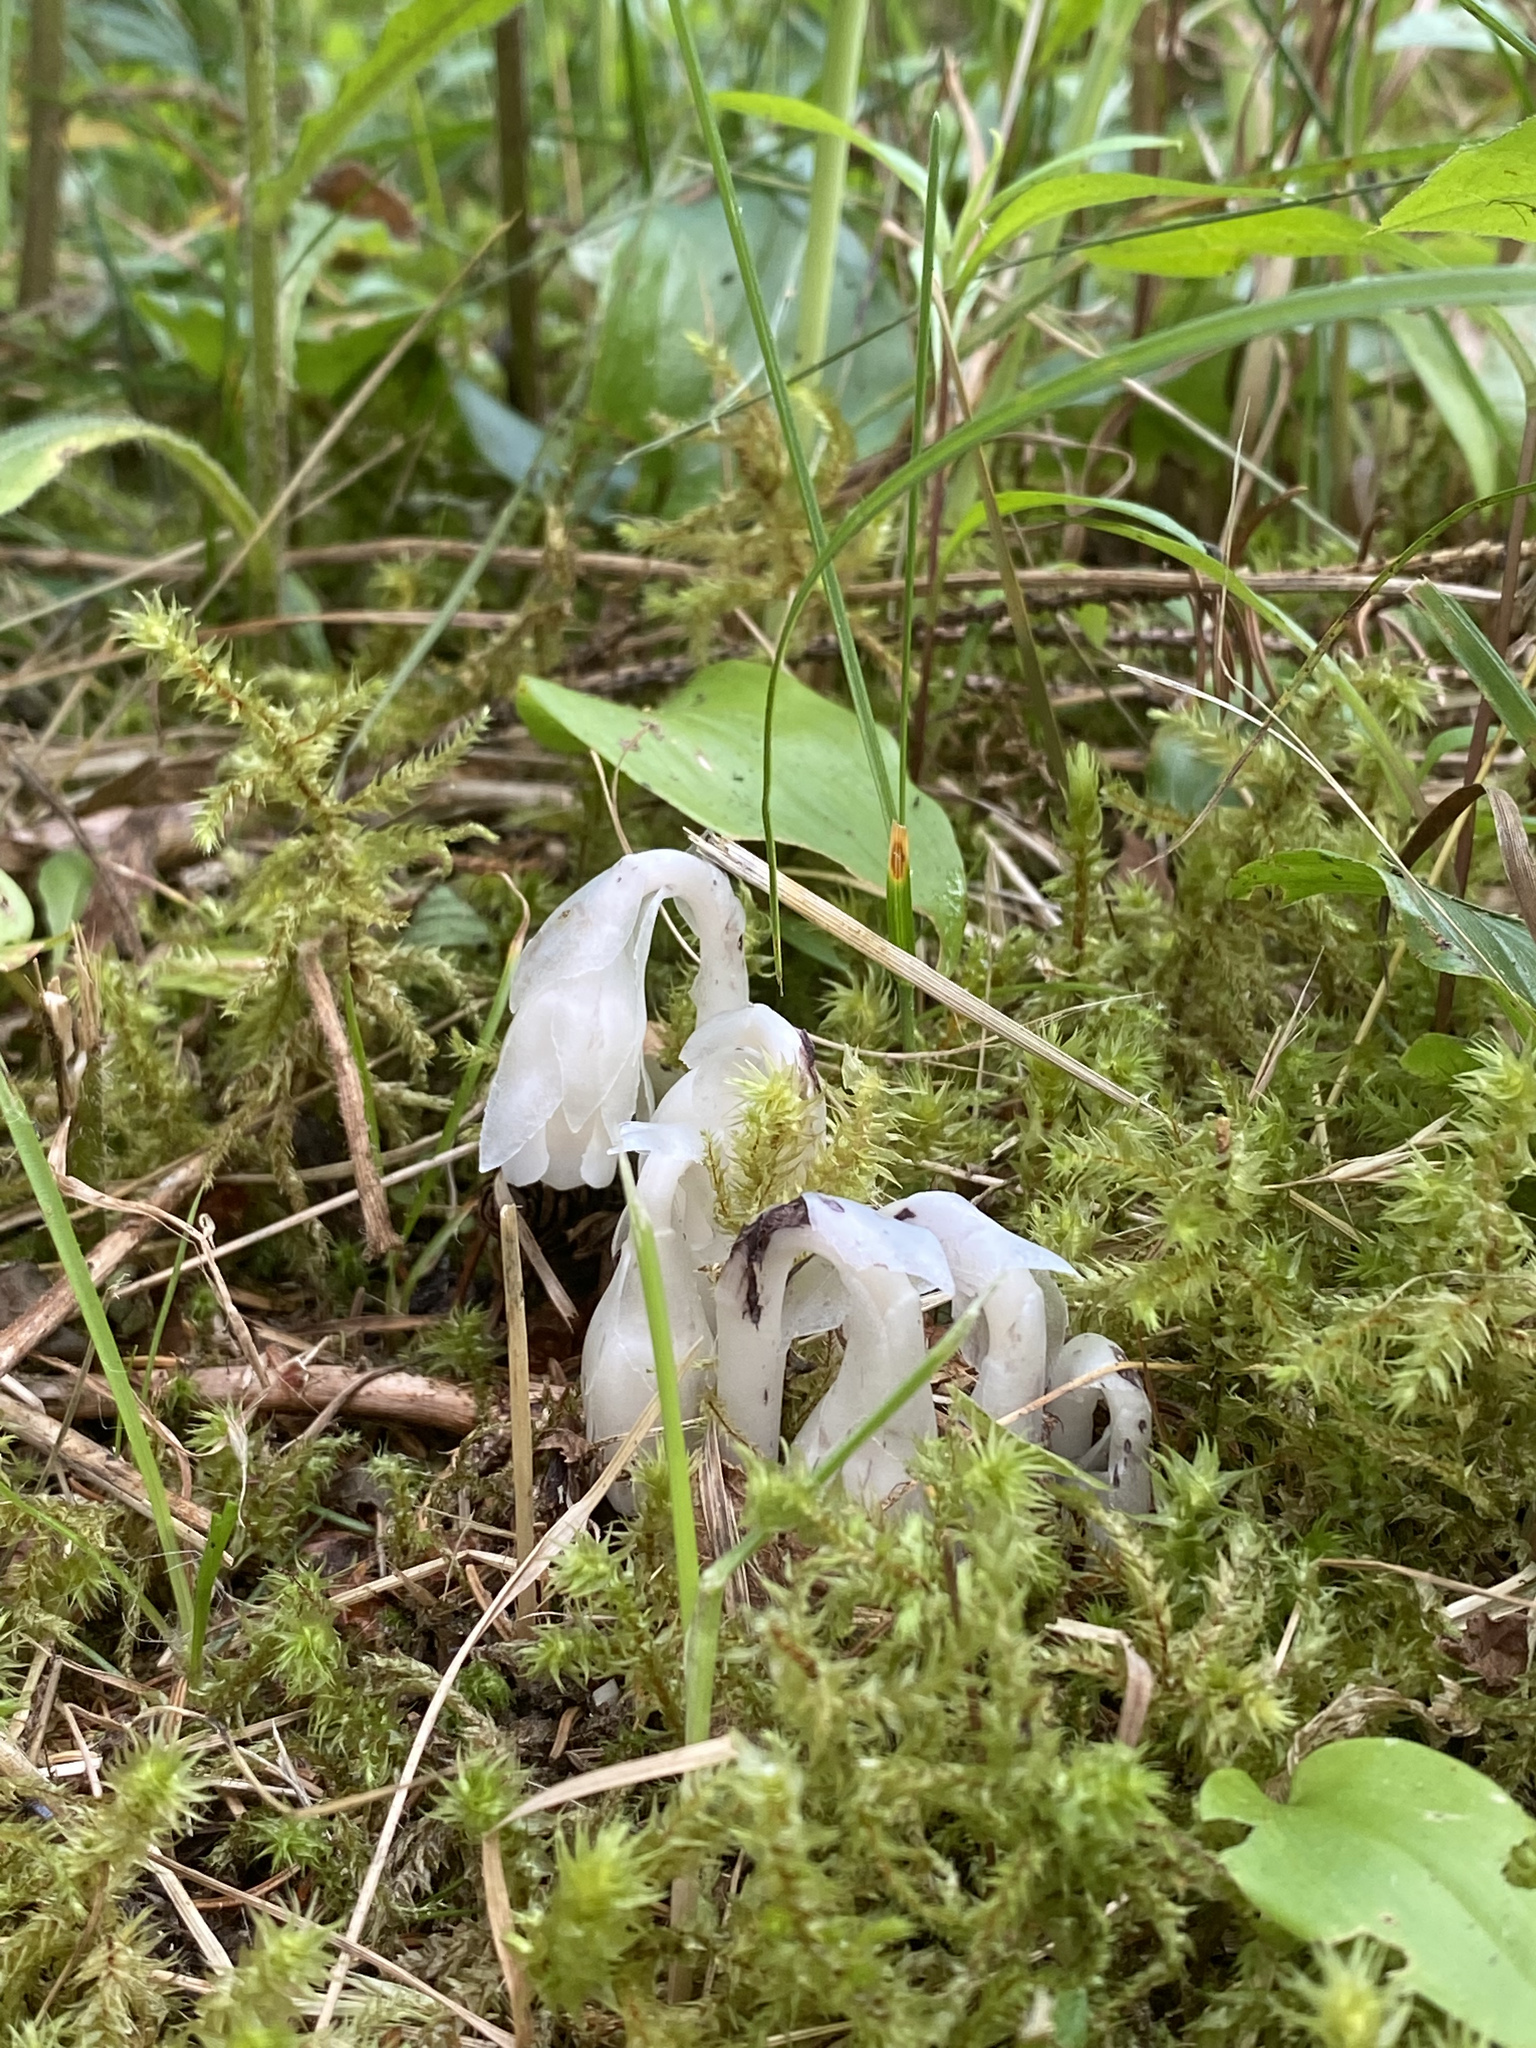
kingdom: Plantae
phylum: Tracheophyta
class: Magnoliopsida
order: Ericales
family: Ericaceae
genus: Monotropa
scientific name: Monotropa uniflora
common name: Convulsion root
